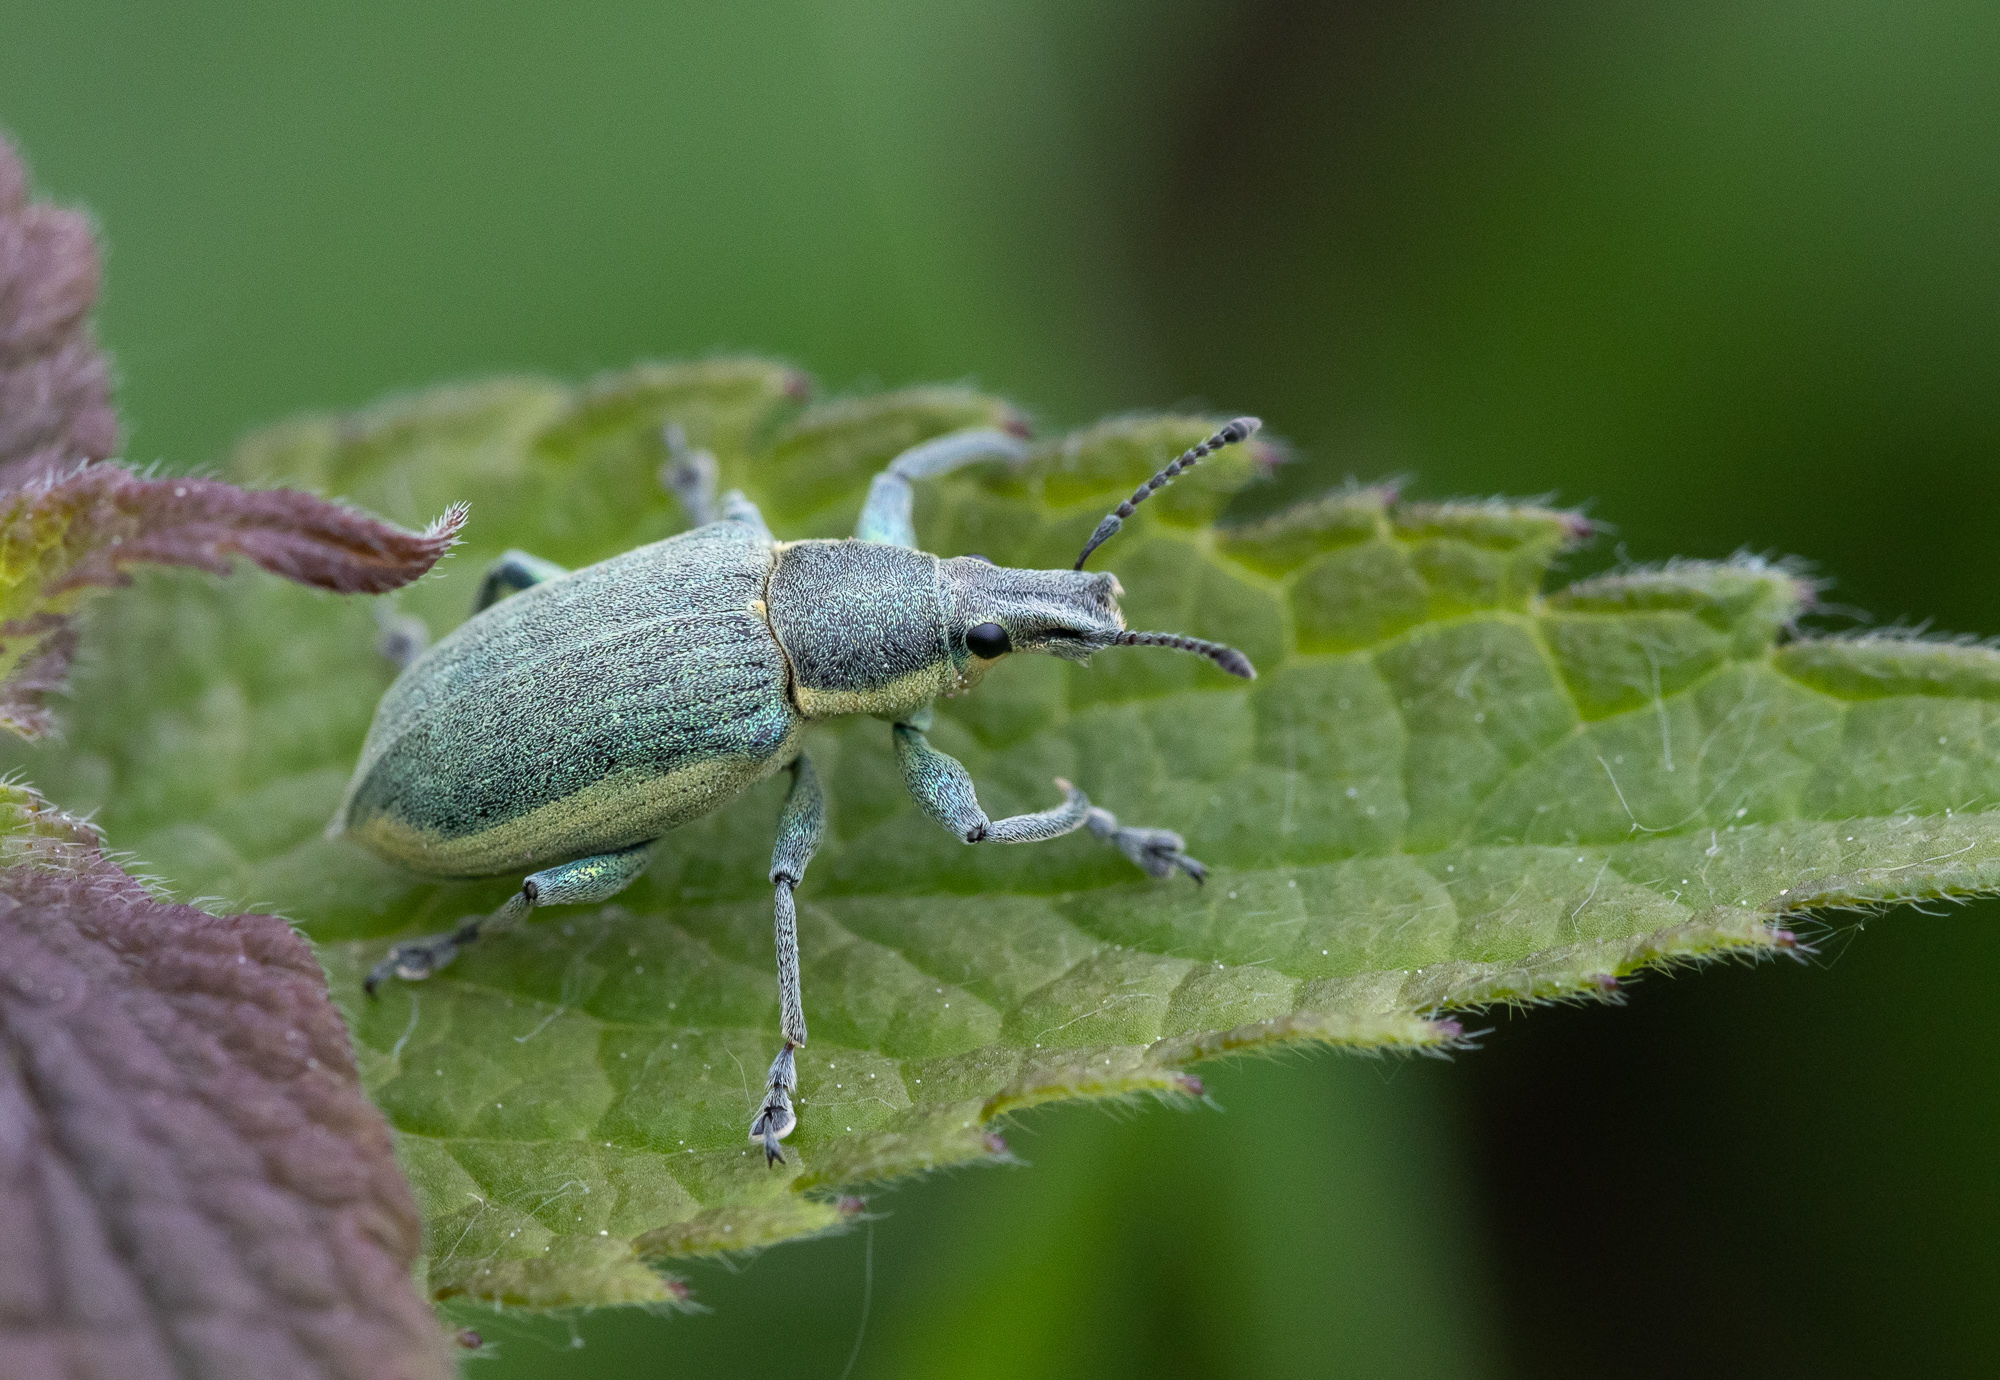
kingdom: Animalia
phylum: Arthropoda
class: Insecta
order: Coleoptera
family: Curculionidae
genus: Chlorophanus
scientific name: Chlorophanus viridis
